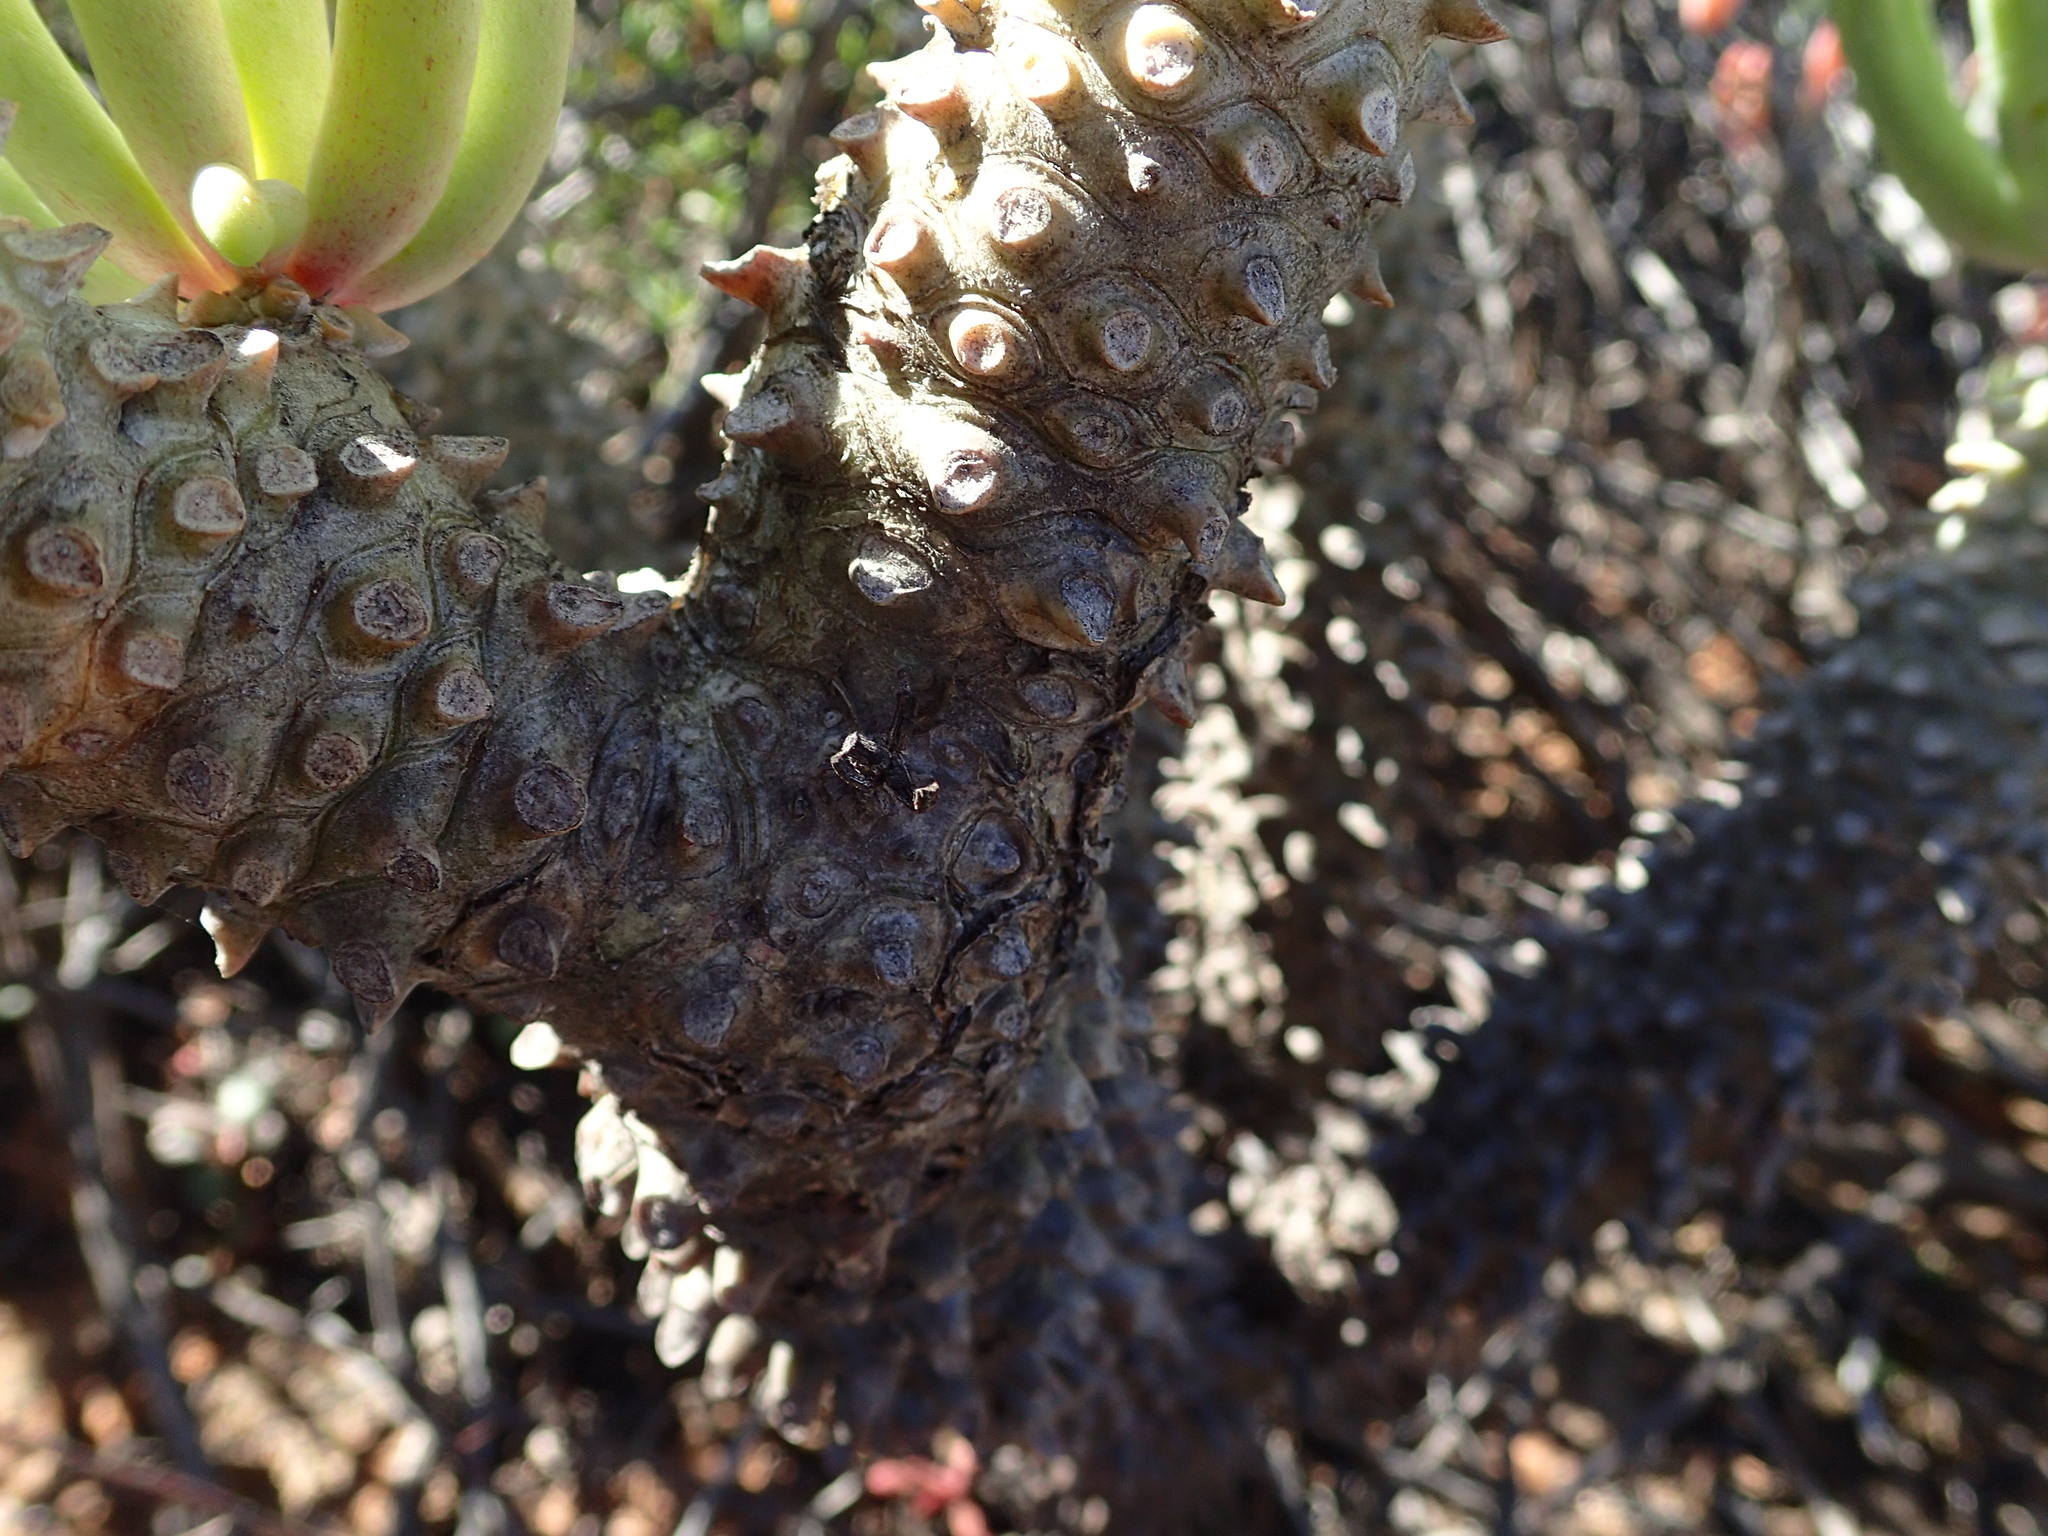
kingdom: Plantae
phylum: Tracheophyta
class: Magnoliopsida
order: Saxifragales
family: Crassulaceae
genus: Tylecodon
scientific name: Tylecodon wallichii
